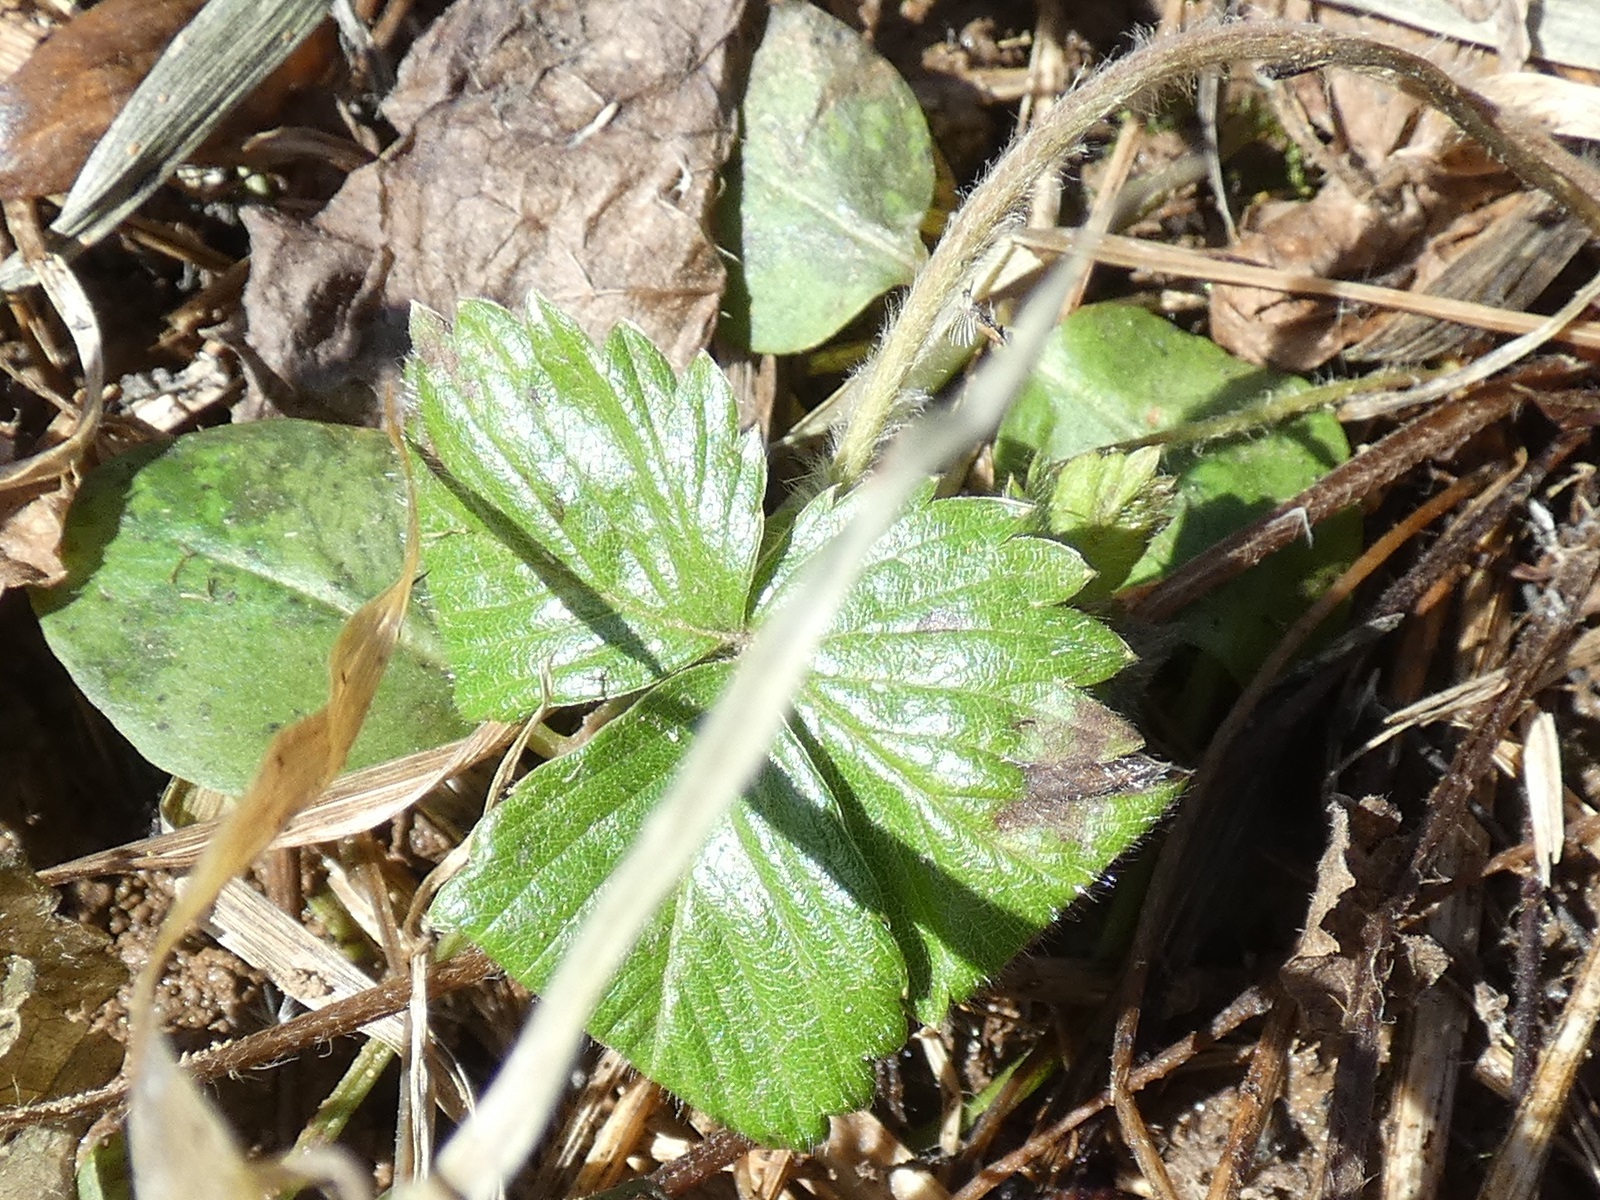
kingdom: Plantae
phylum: Tracheophyta
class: Magnoliopsida
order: Rosales
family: Rosaceae
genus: Fragaria
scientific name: Fragaria vesca
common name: Wild strawberry
